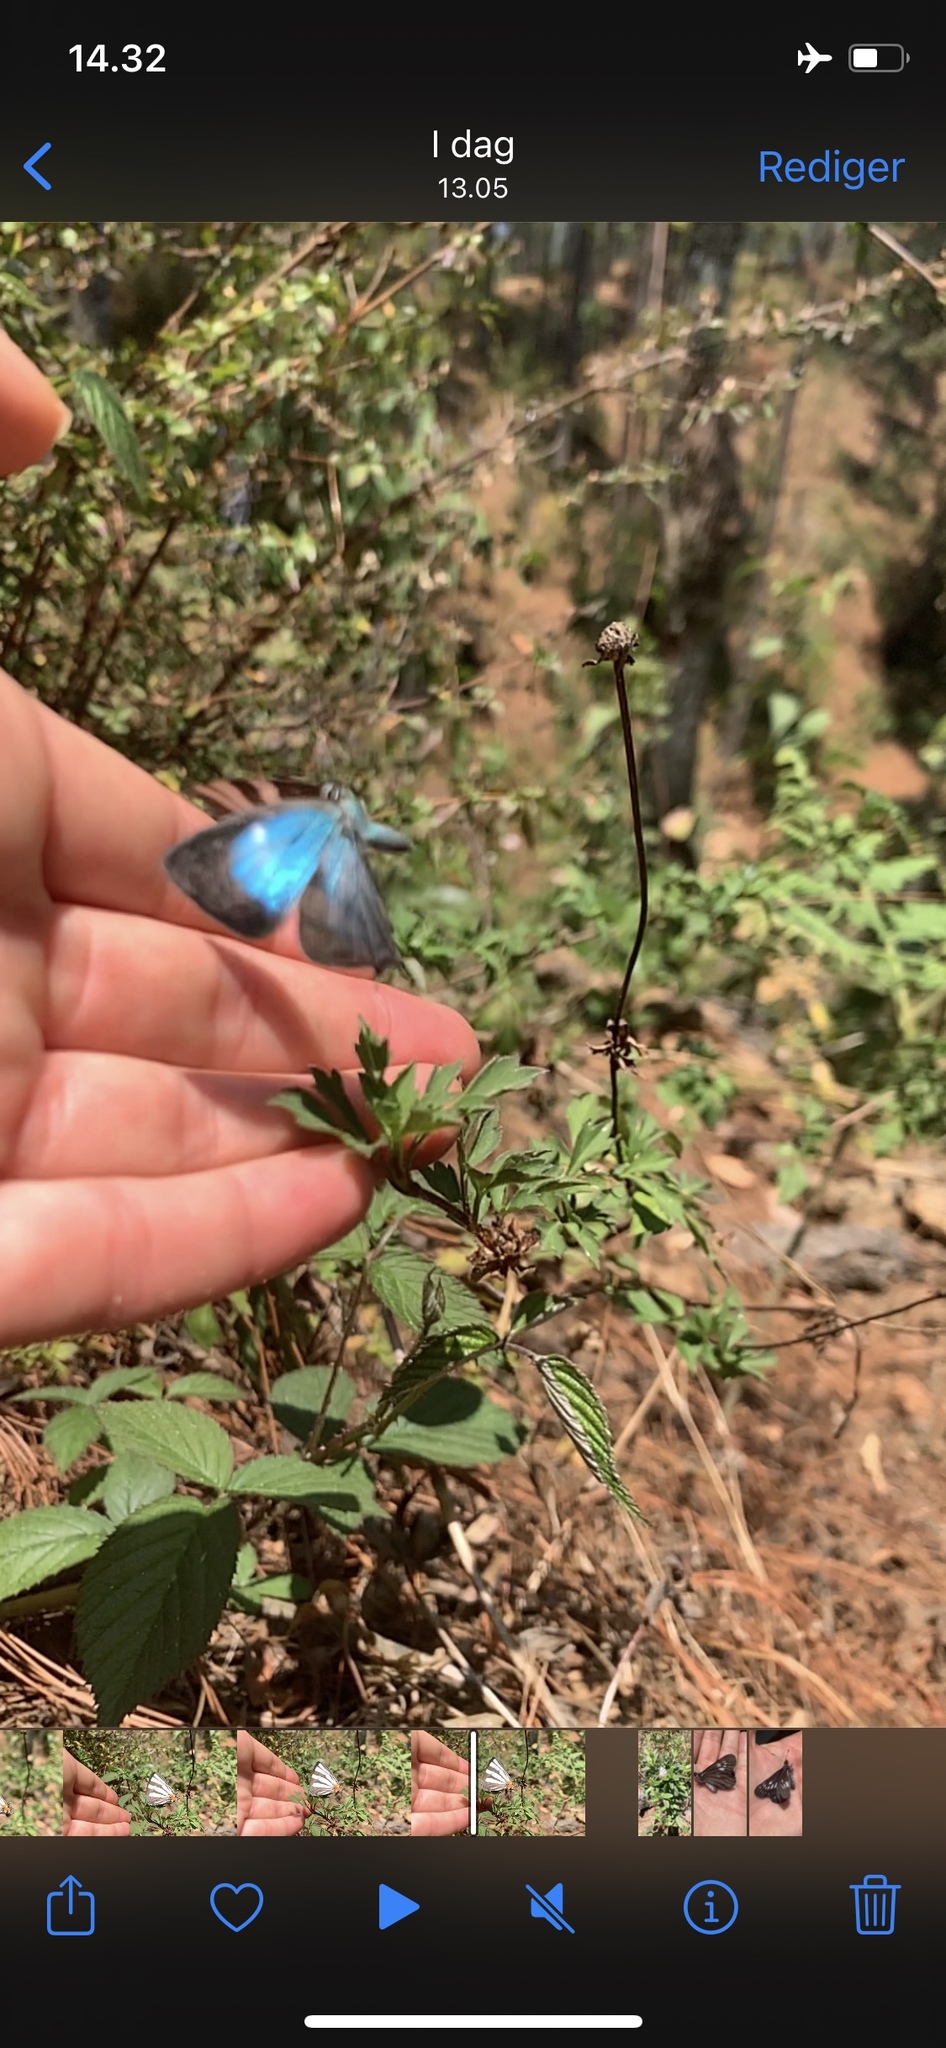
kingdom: Animalia
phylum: Arthropoda
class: Insecta
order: Lepidoptera
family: Lycaenidae
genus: Laothus
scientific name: Laothus
